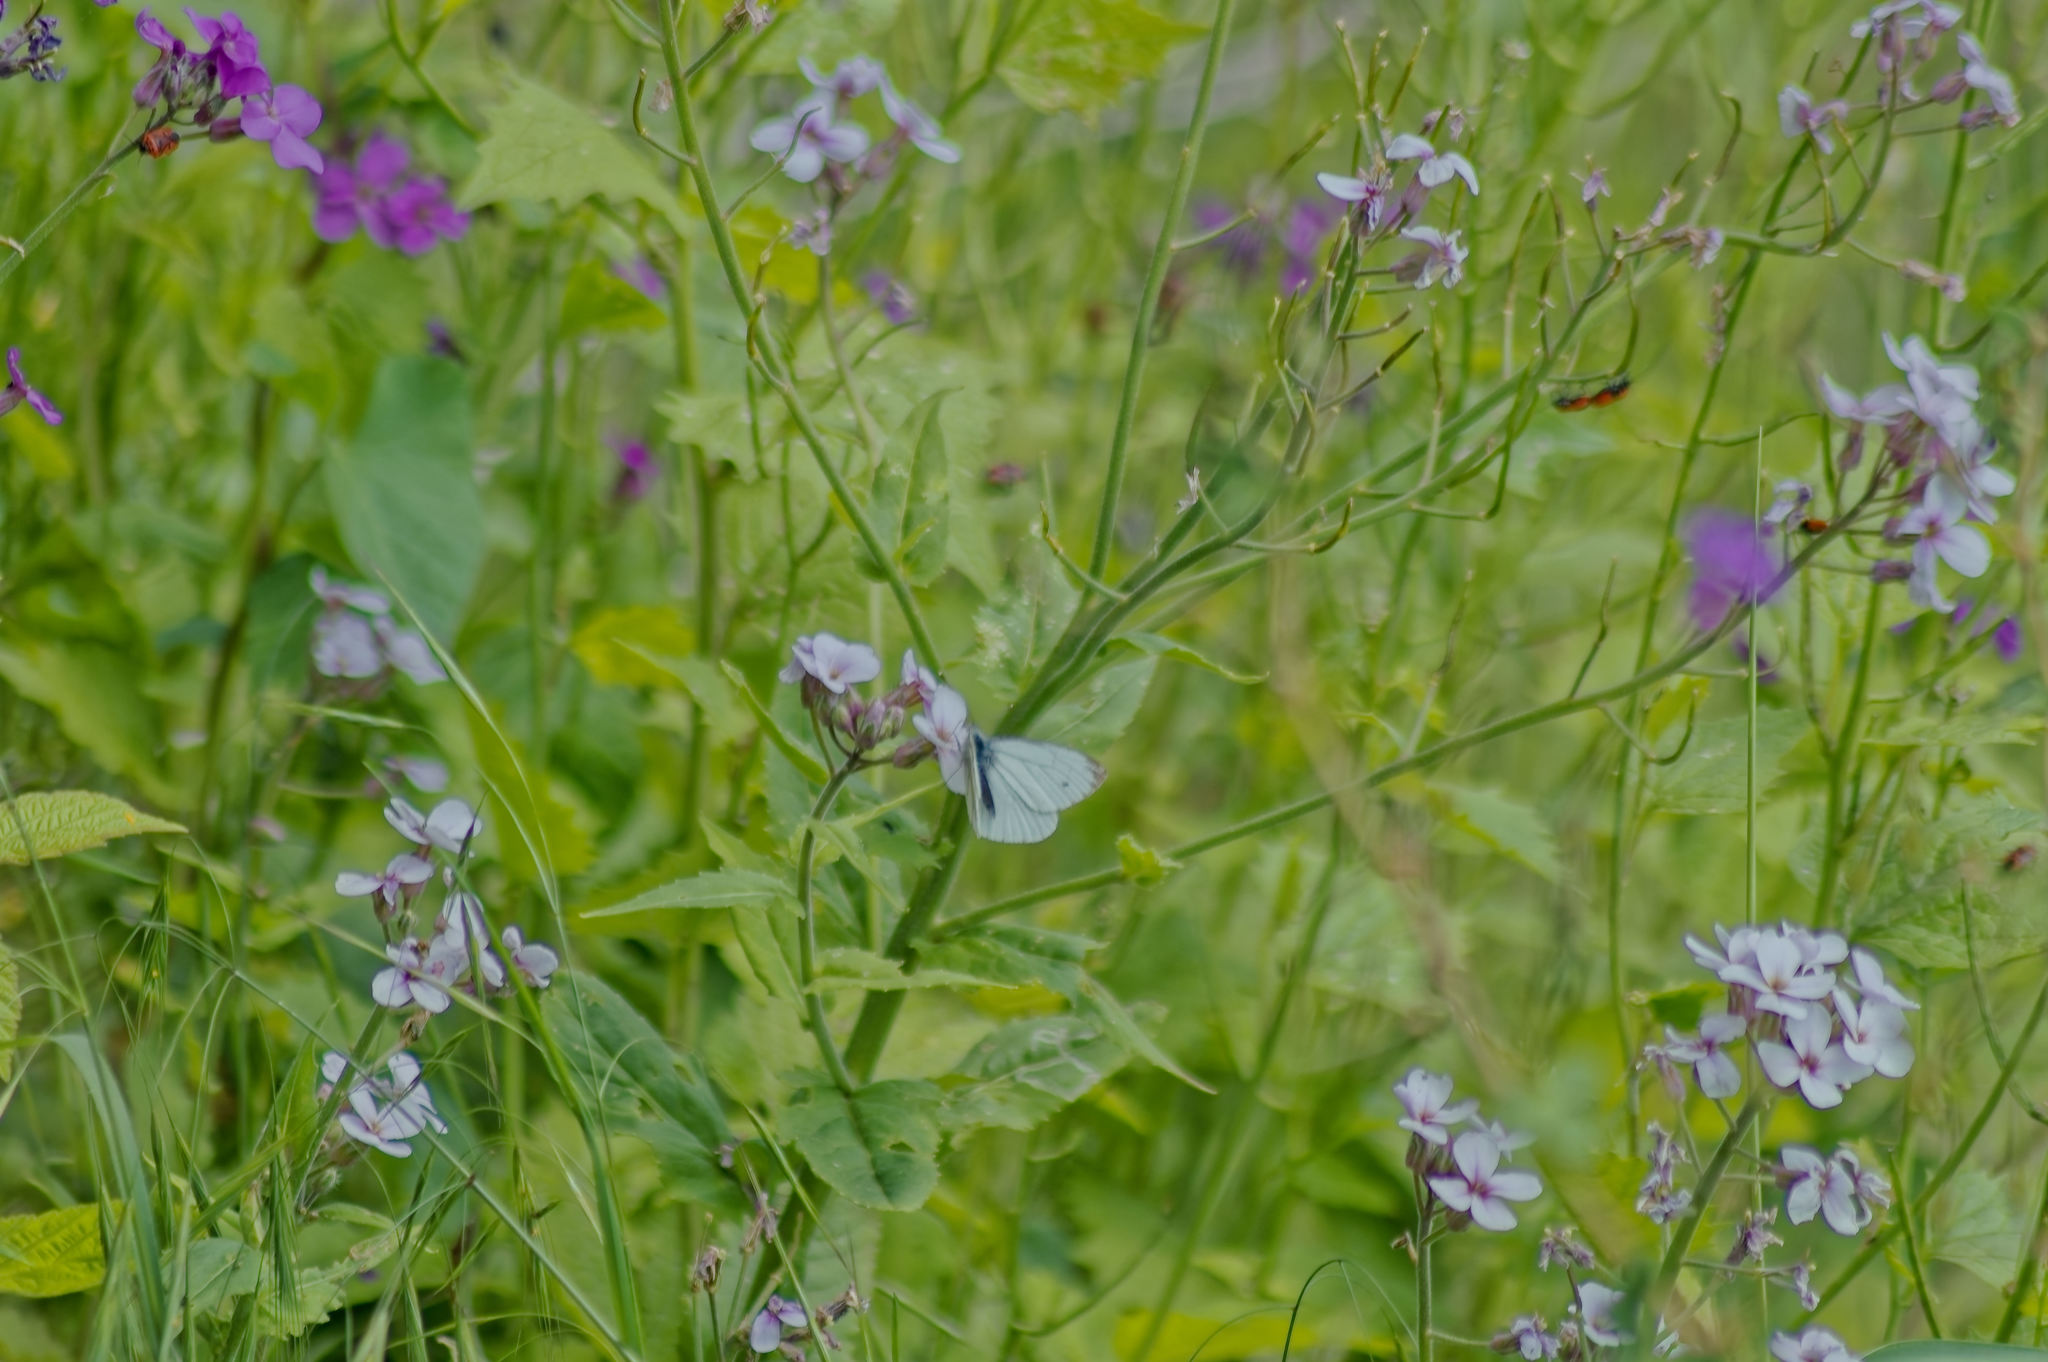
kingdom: Animalia
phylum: Arthropoda
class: Insecta
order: Lepidoptera
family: Pieridae
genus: Pieris
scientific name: Pieris napi
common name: Green-veined white
